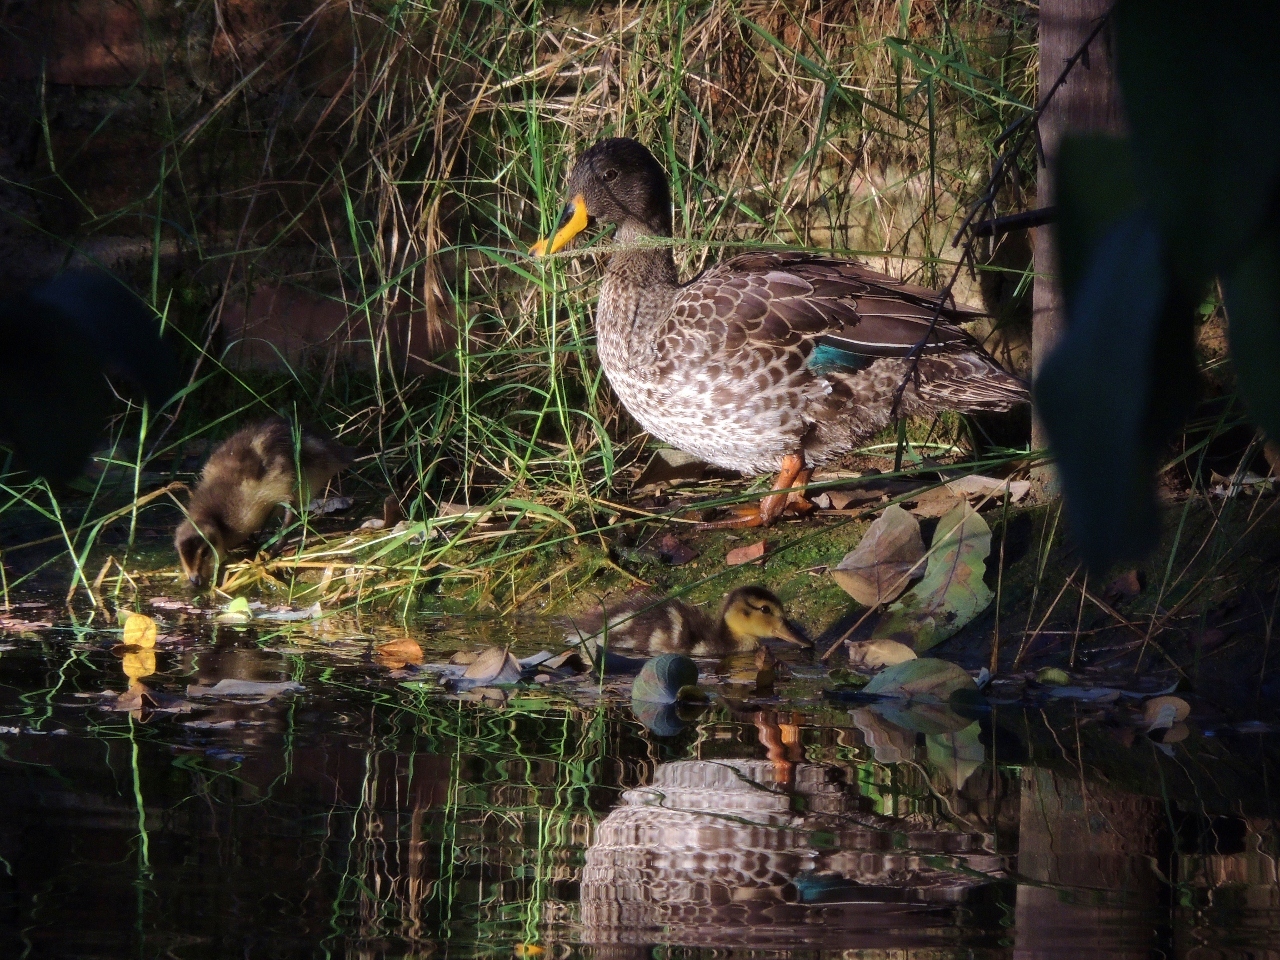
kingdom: Animalia
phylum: Chordata
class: Aves
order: Anseriformes
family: Anatidae
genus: Anas
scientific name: Anas undulata
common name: Yellow-billed duck
